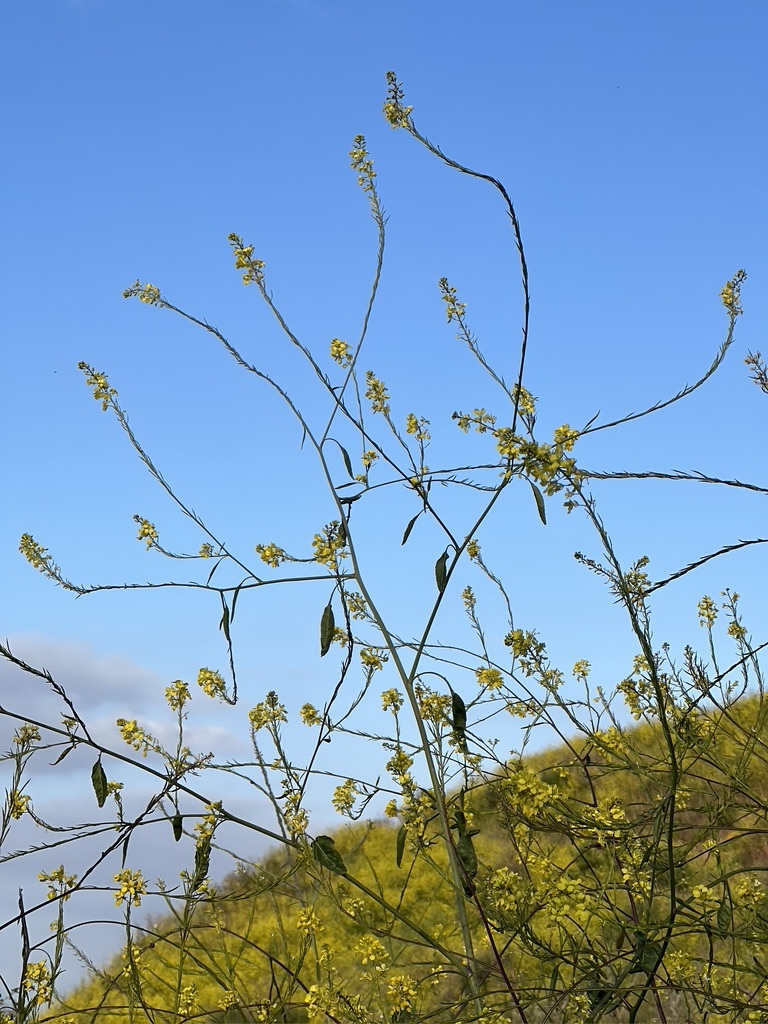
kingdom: Plantae
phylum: Tracheophyta
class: Magnoliopsida
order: Brassicales
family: Brassicaceae
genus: Brassica
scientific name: Brassica nigra
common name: Black mustard
